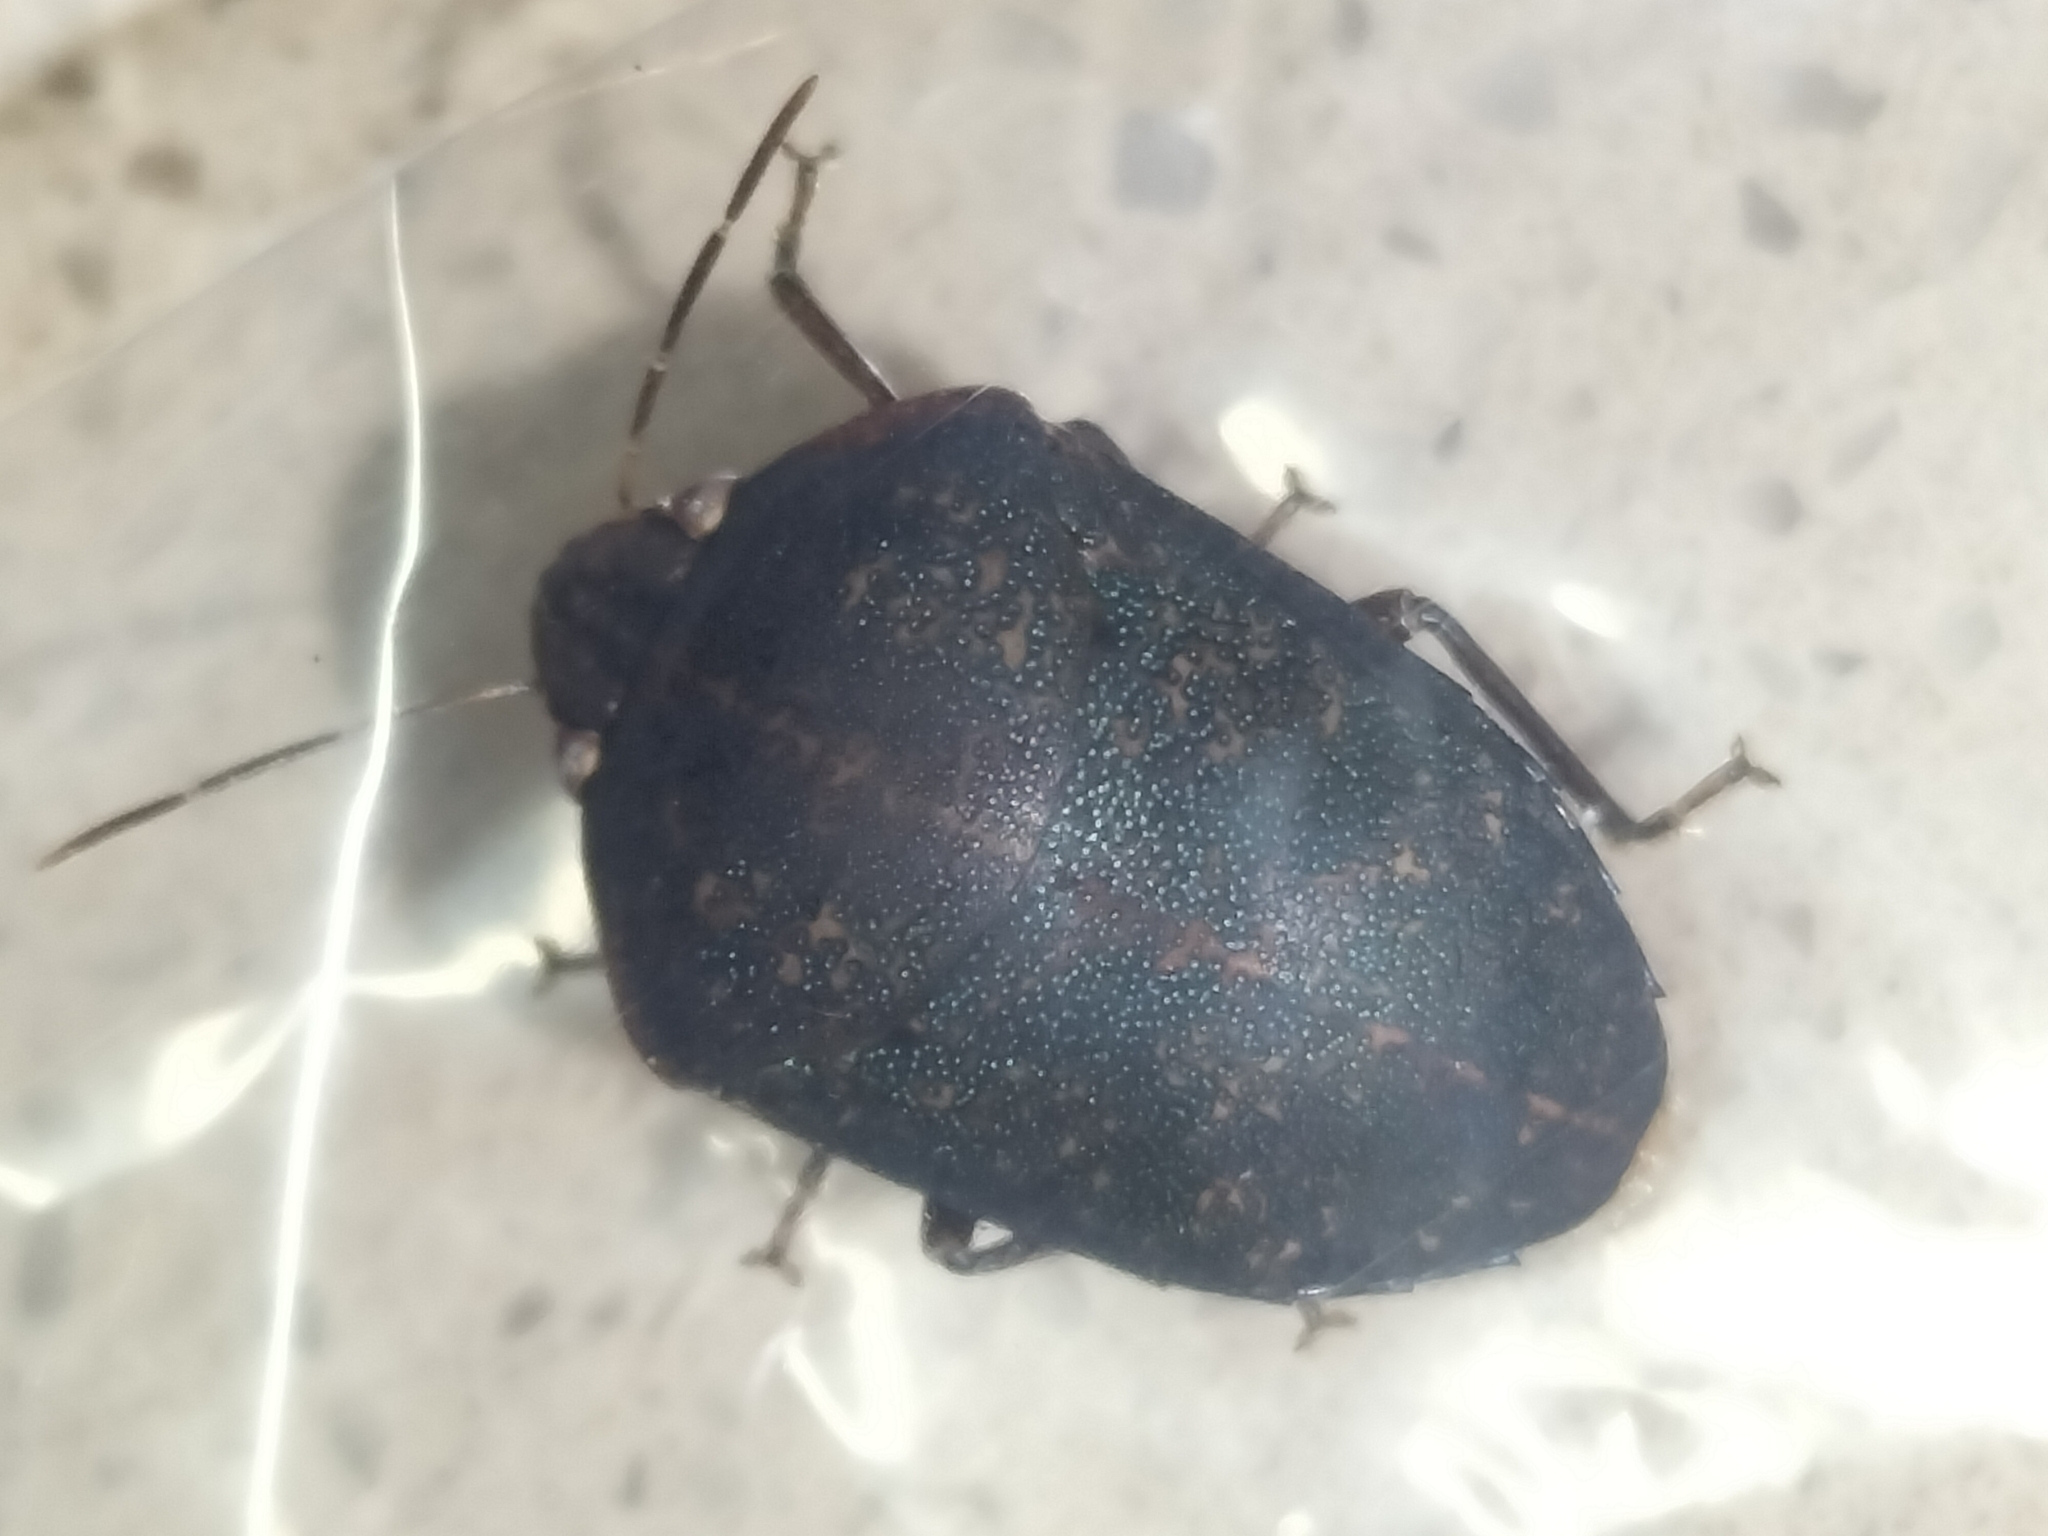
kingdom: Animalia
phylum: Arthropoda
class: Insecta
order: Hemiptera
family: Pentatomidae
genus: Coleotichus
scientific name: Coleotichus artensis
